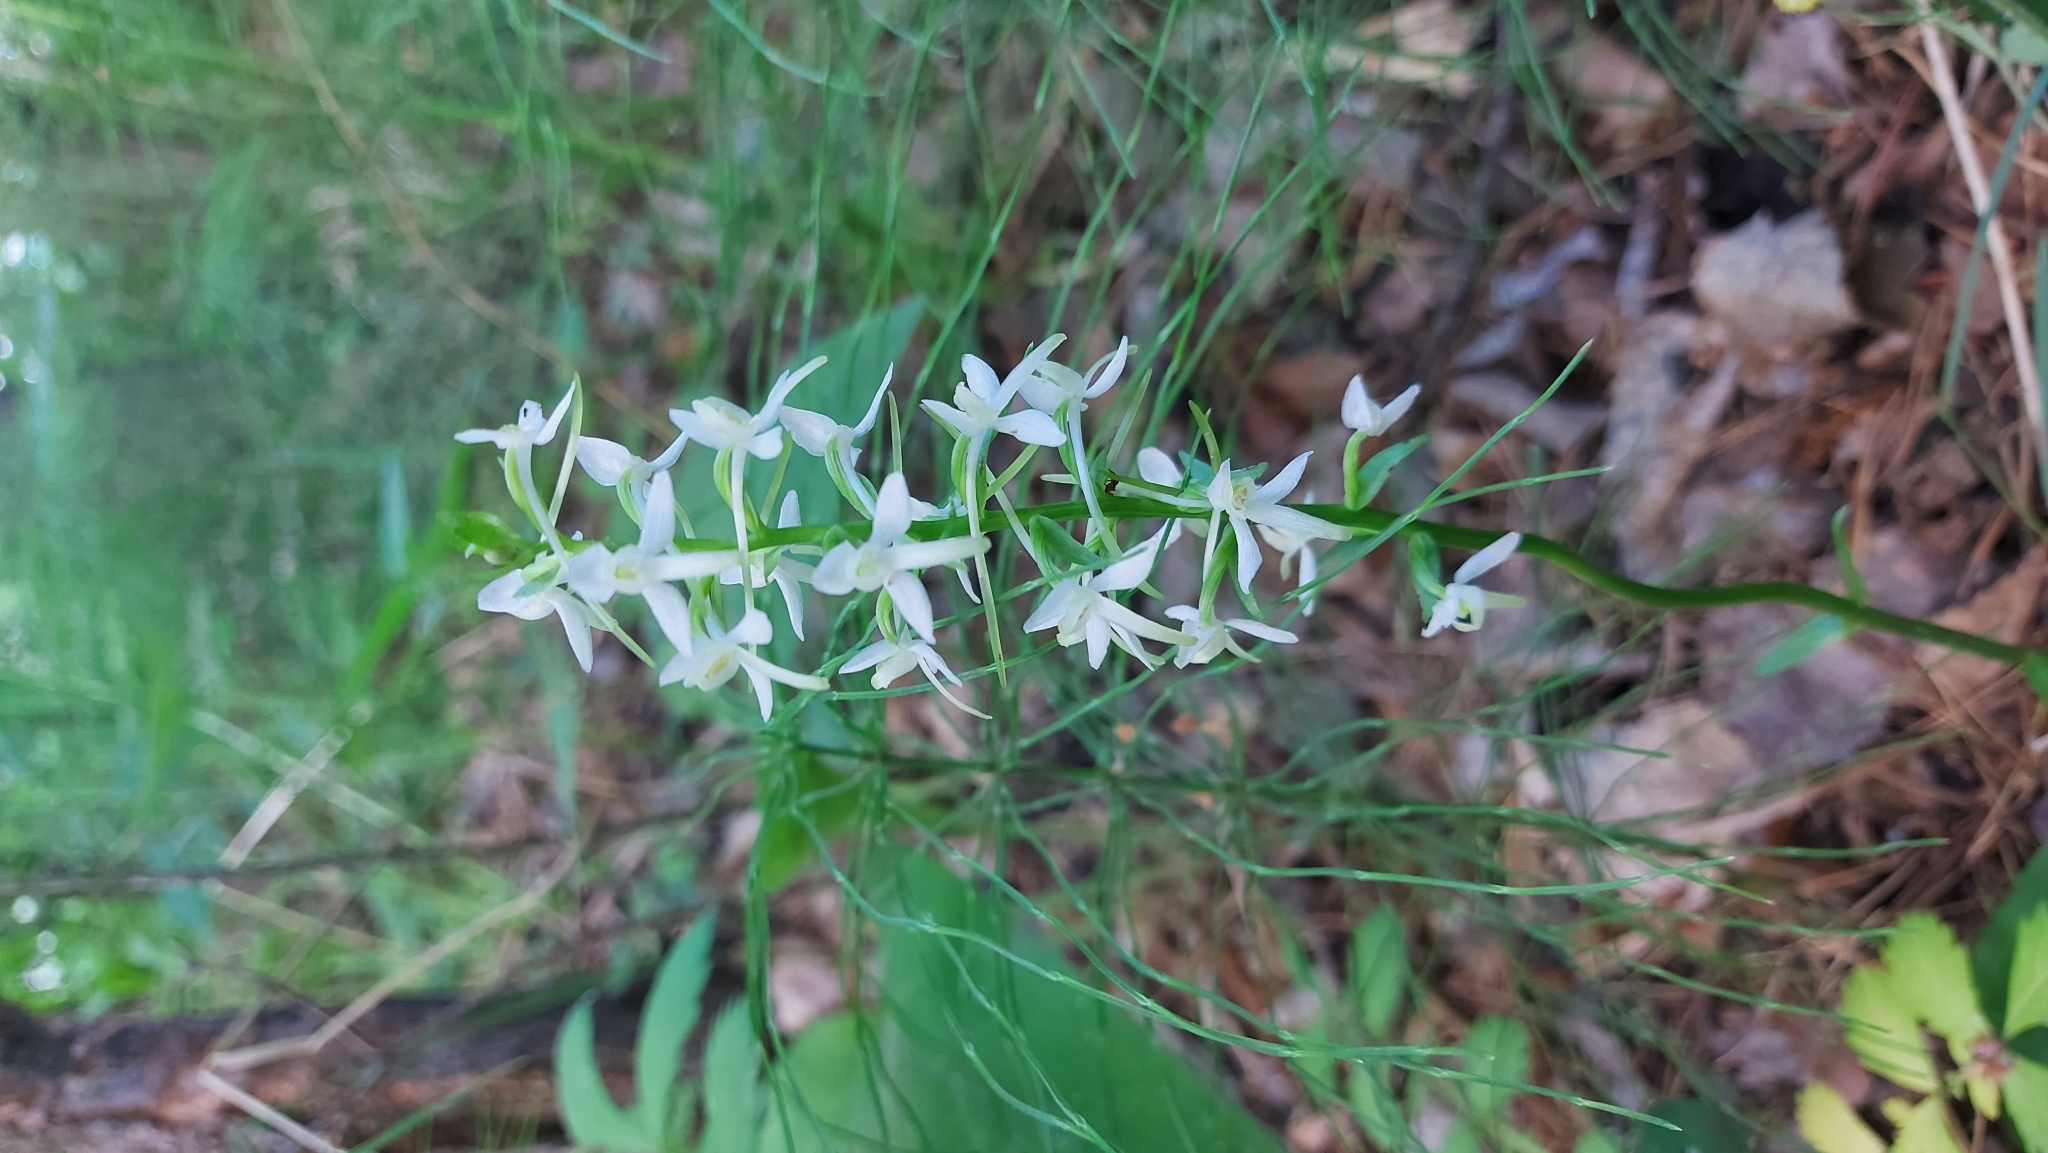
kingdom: Plantae
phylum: Tracheophyta
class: Liliopsida
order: Asparagales
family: Orchidaceae
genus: Platanthera
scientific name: Platanthera bifolia
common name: Lesser butterfly-orchid
